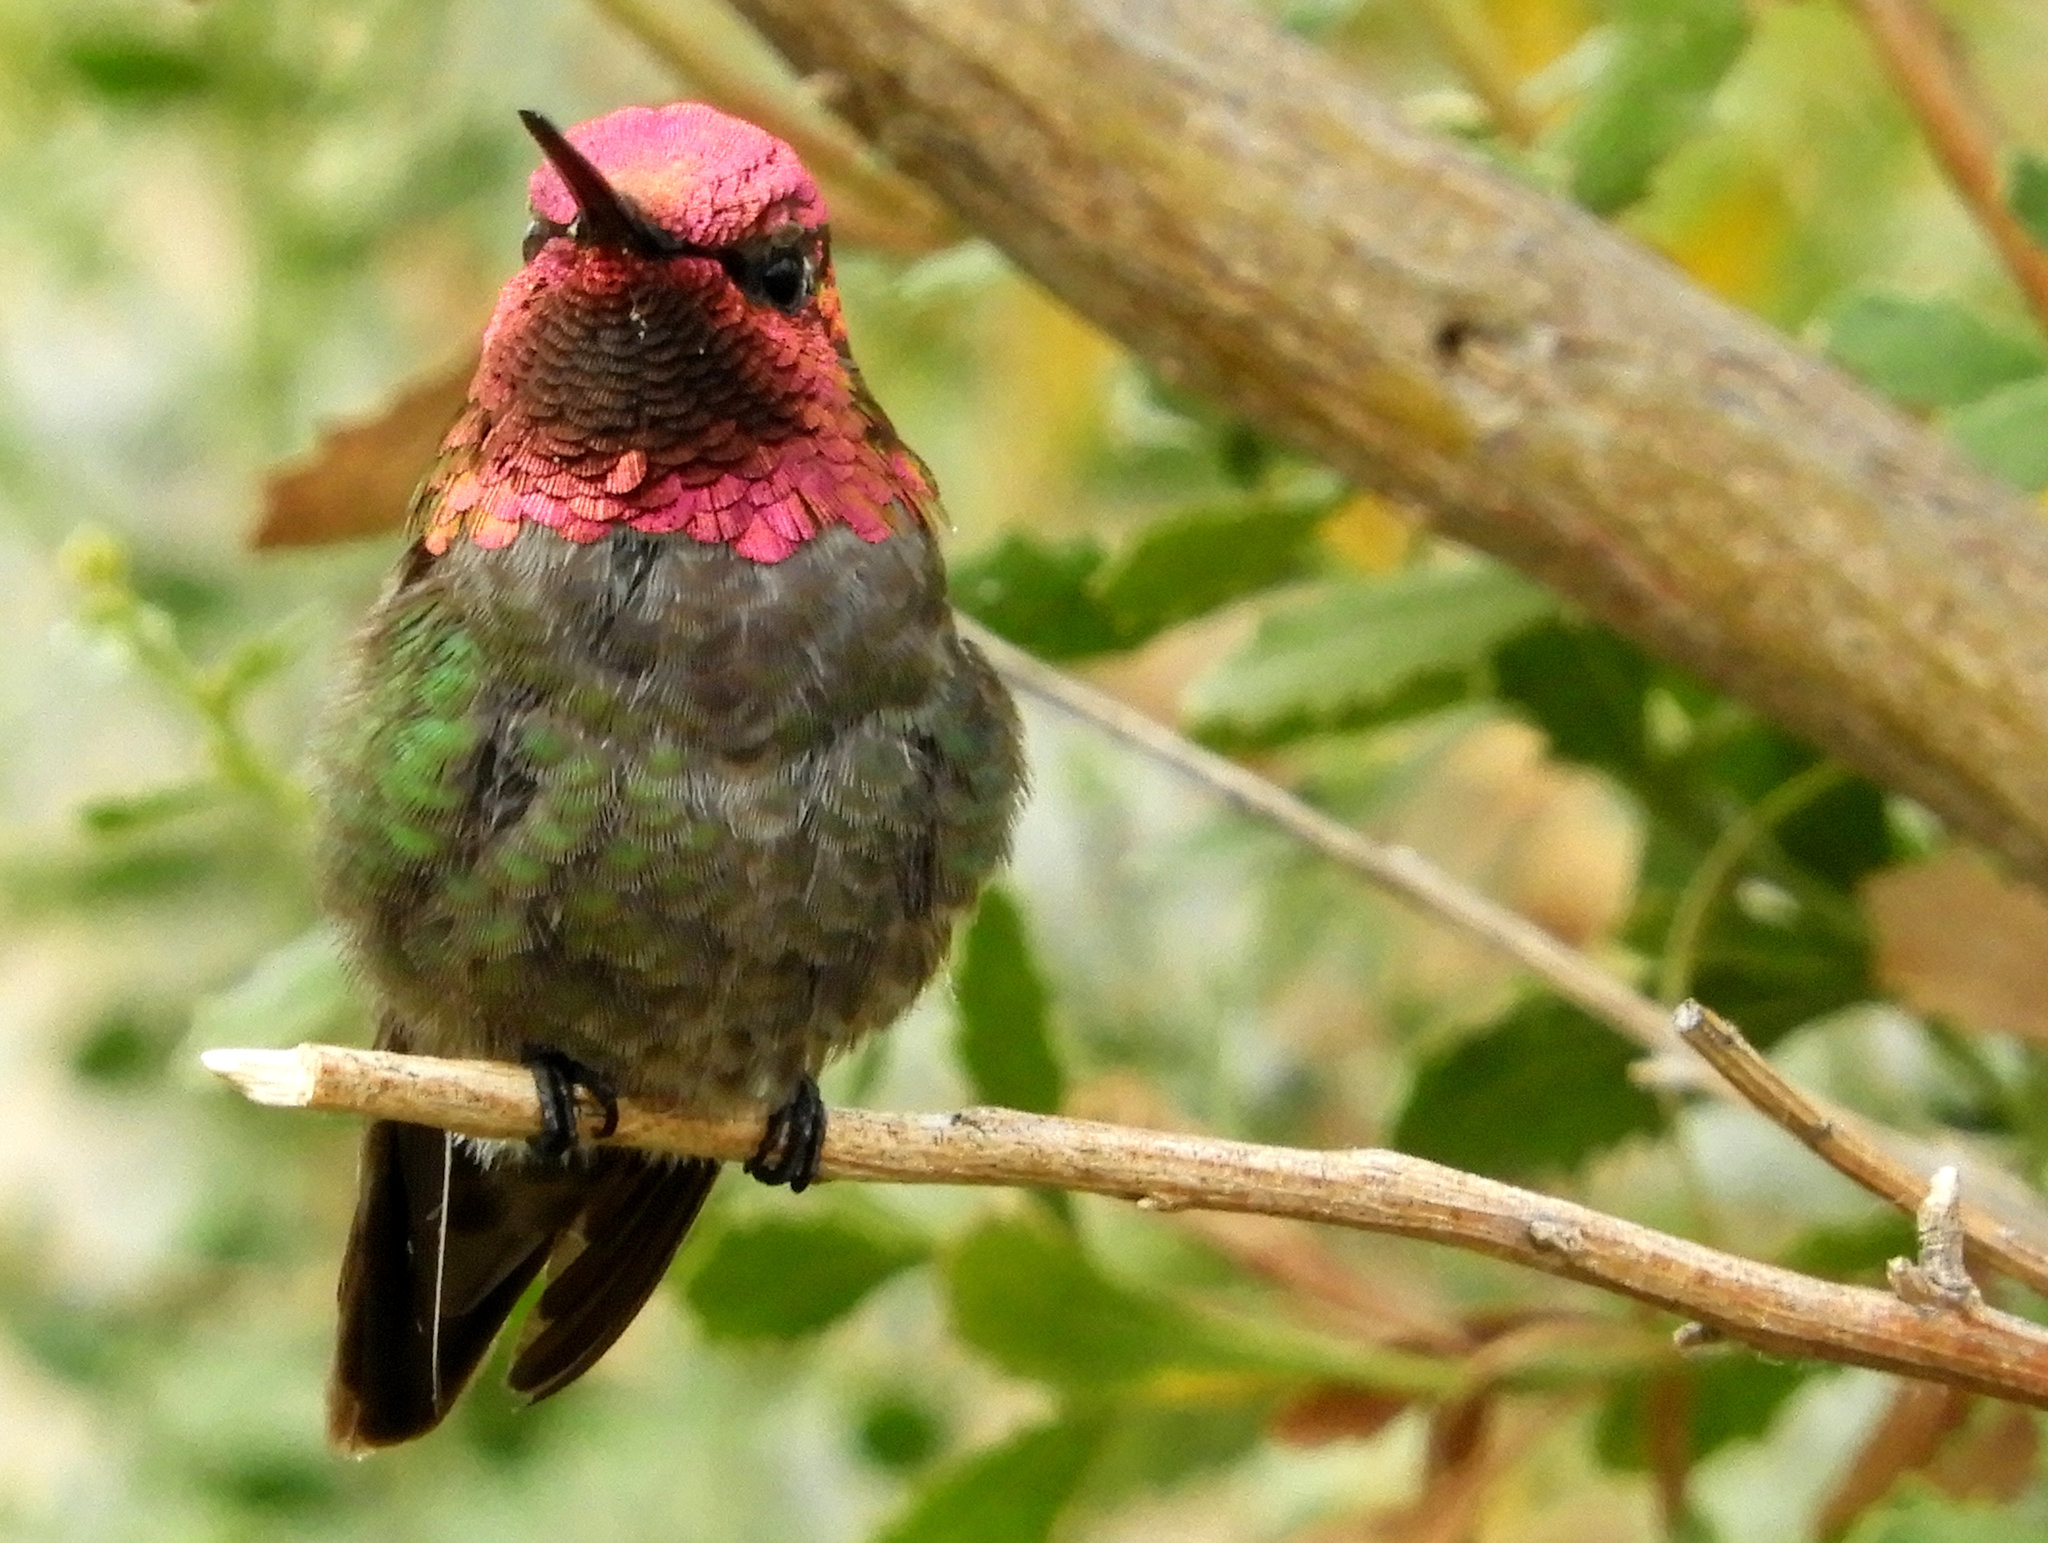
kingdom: Animalia
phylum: Chordata
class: Aves
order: Apodiformes
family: Trochilidae
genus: Calypte
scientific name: Calypte anna
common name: Anna's hummingbird
